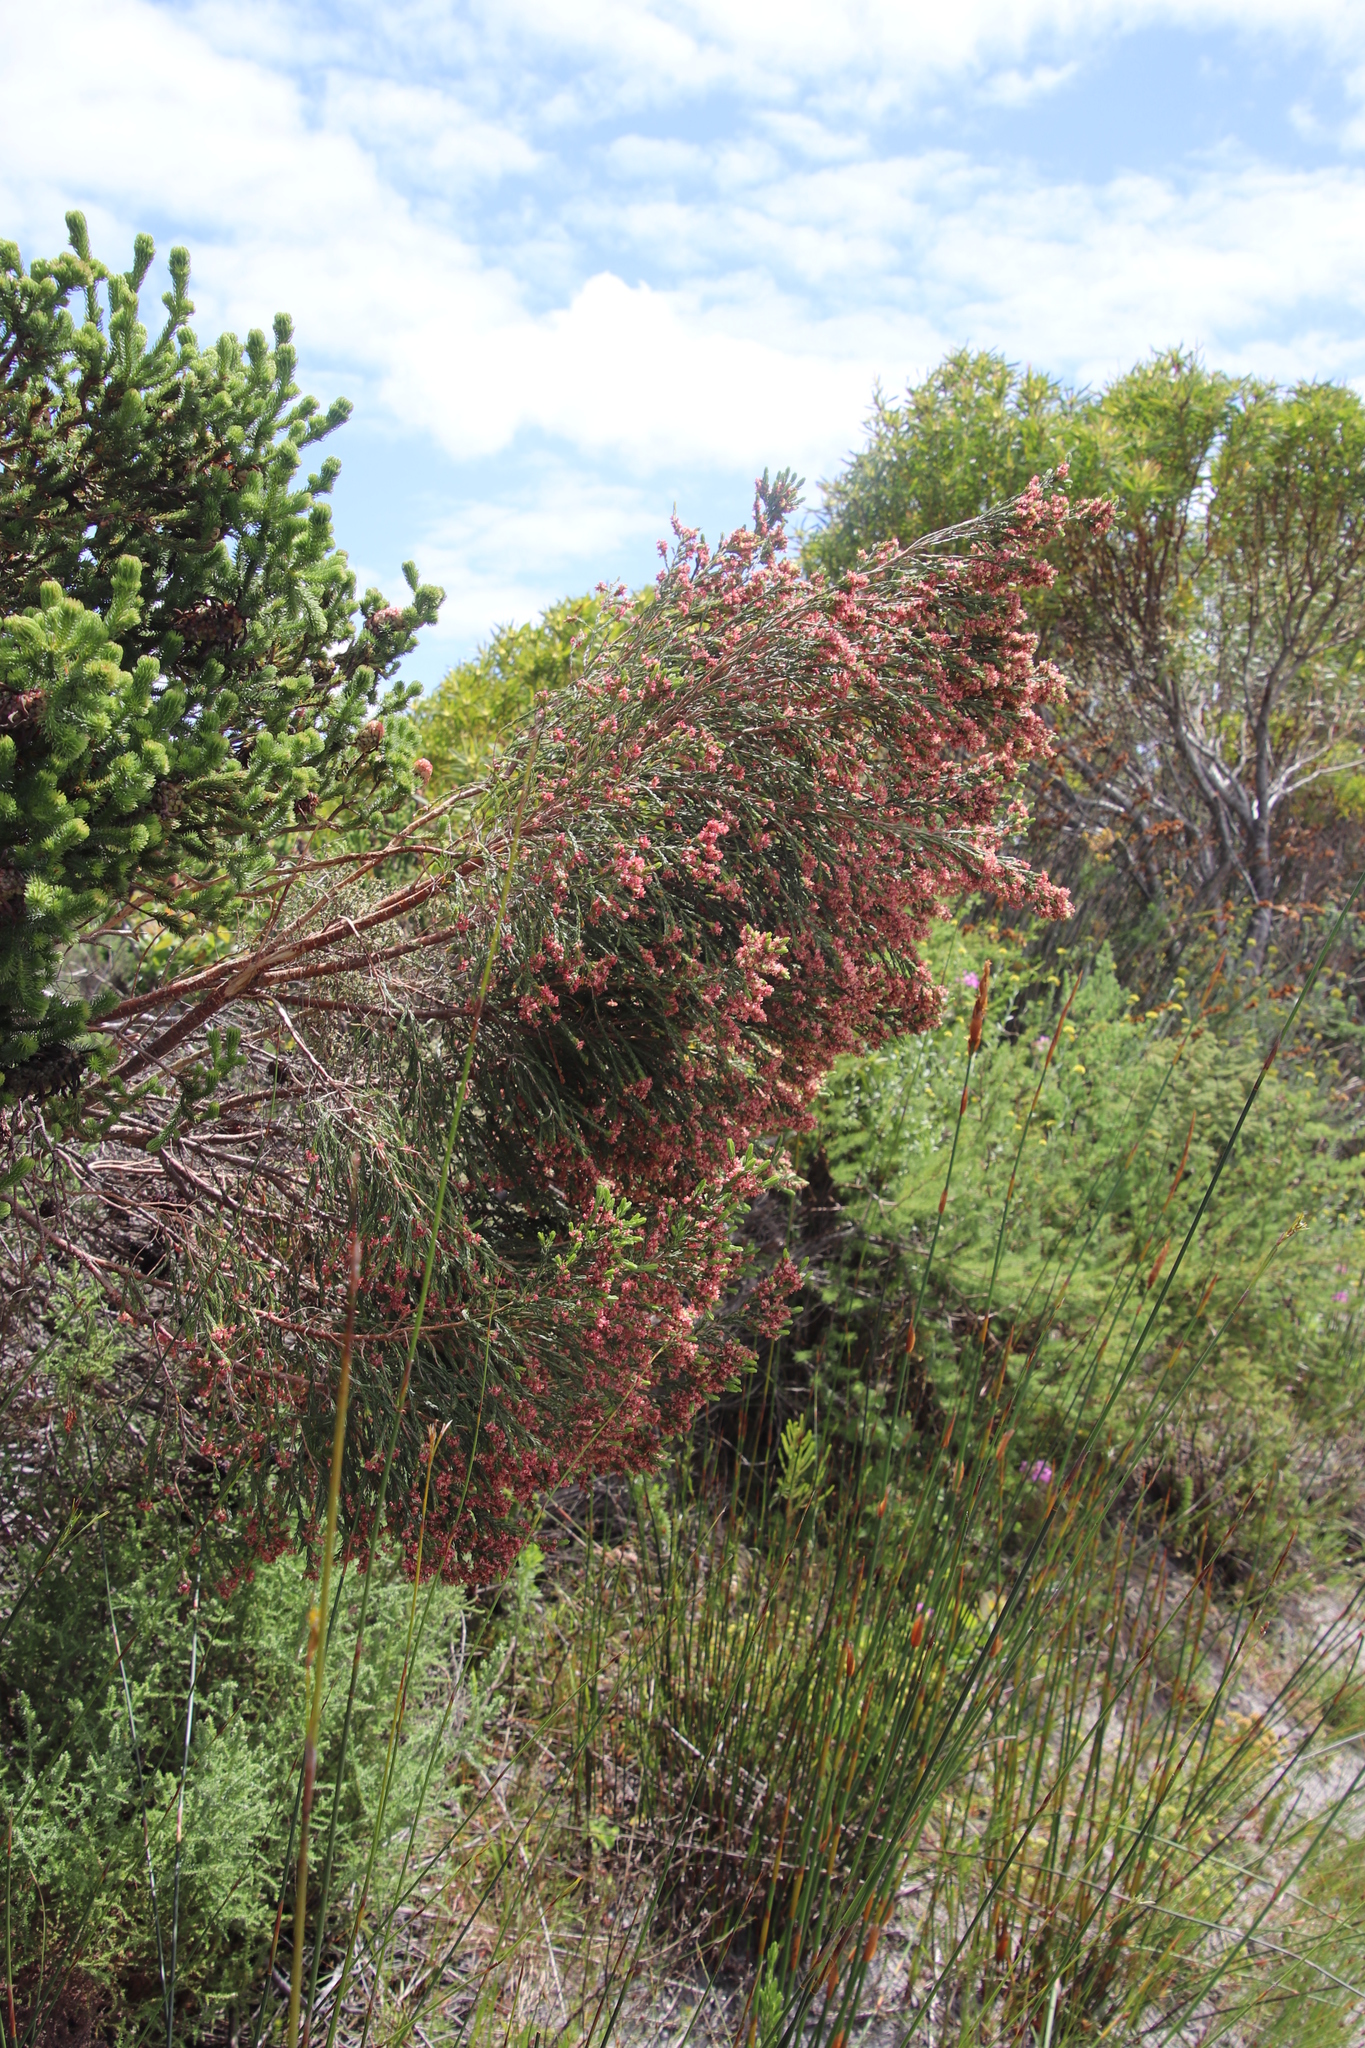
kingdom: Plantae
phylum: Tracheophyta
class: Magnoliopsida
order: Malvales
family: Thymelaeaceae
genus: Passerina
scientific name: Passerina corymbosa
